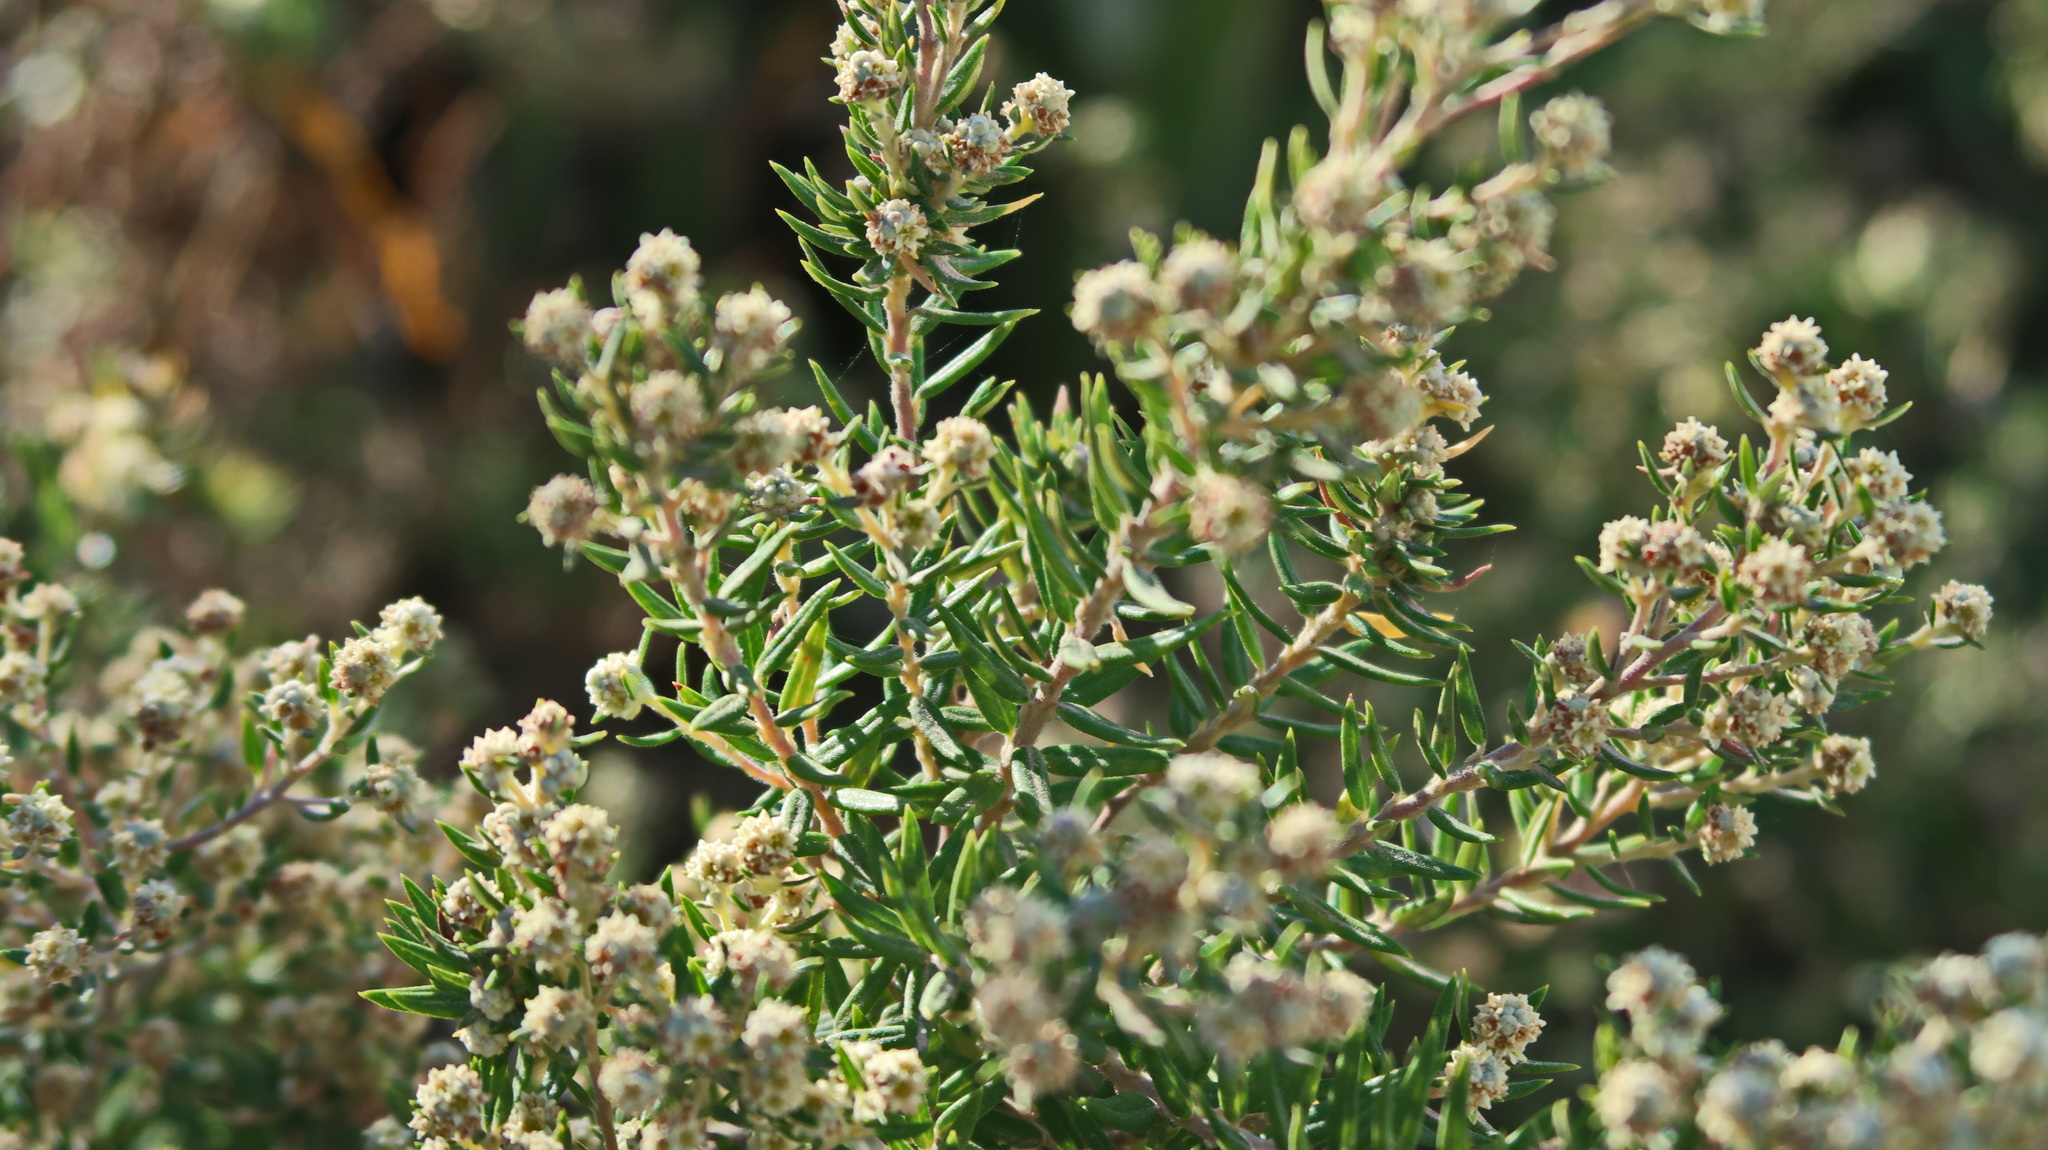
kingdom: Plantae
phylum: Tracheophyta
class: Magnoliopsida
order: Rosales
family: Rhamnaceae
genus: Phylica
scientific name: Phylica paniculata
